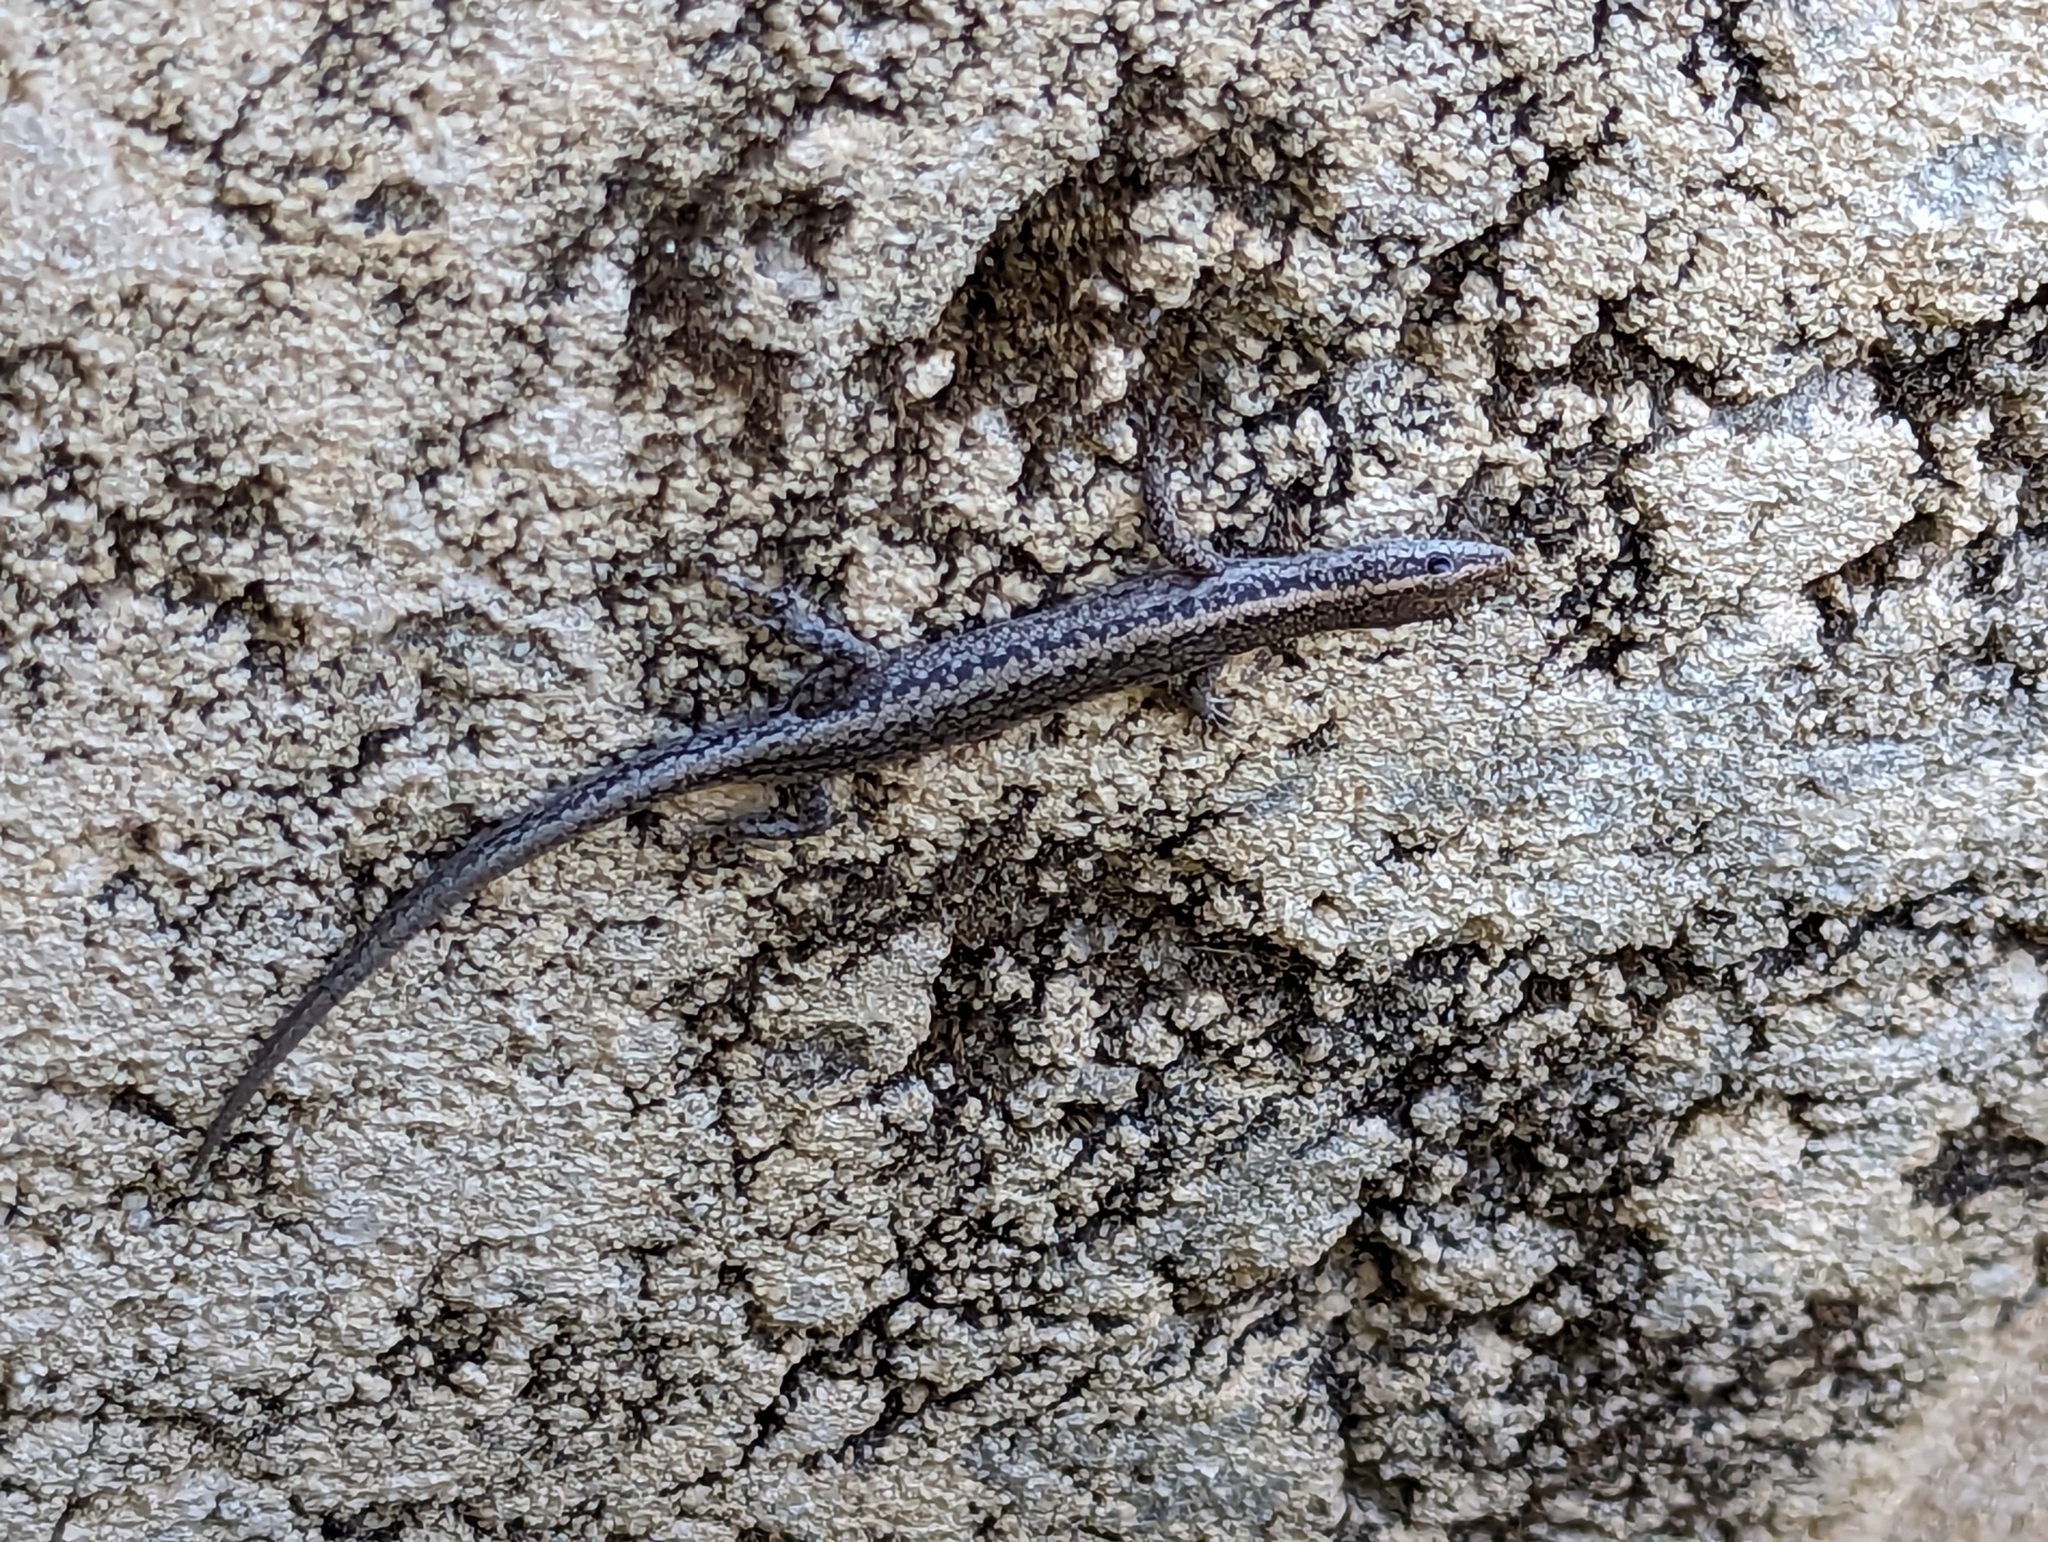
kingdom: Animalia
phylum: Chordata
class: Squamata
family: Scincidae
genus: Cryptoblepharus
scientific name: Cryptoblepharus buchananii
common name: Buchanan's snake-eyed skink
